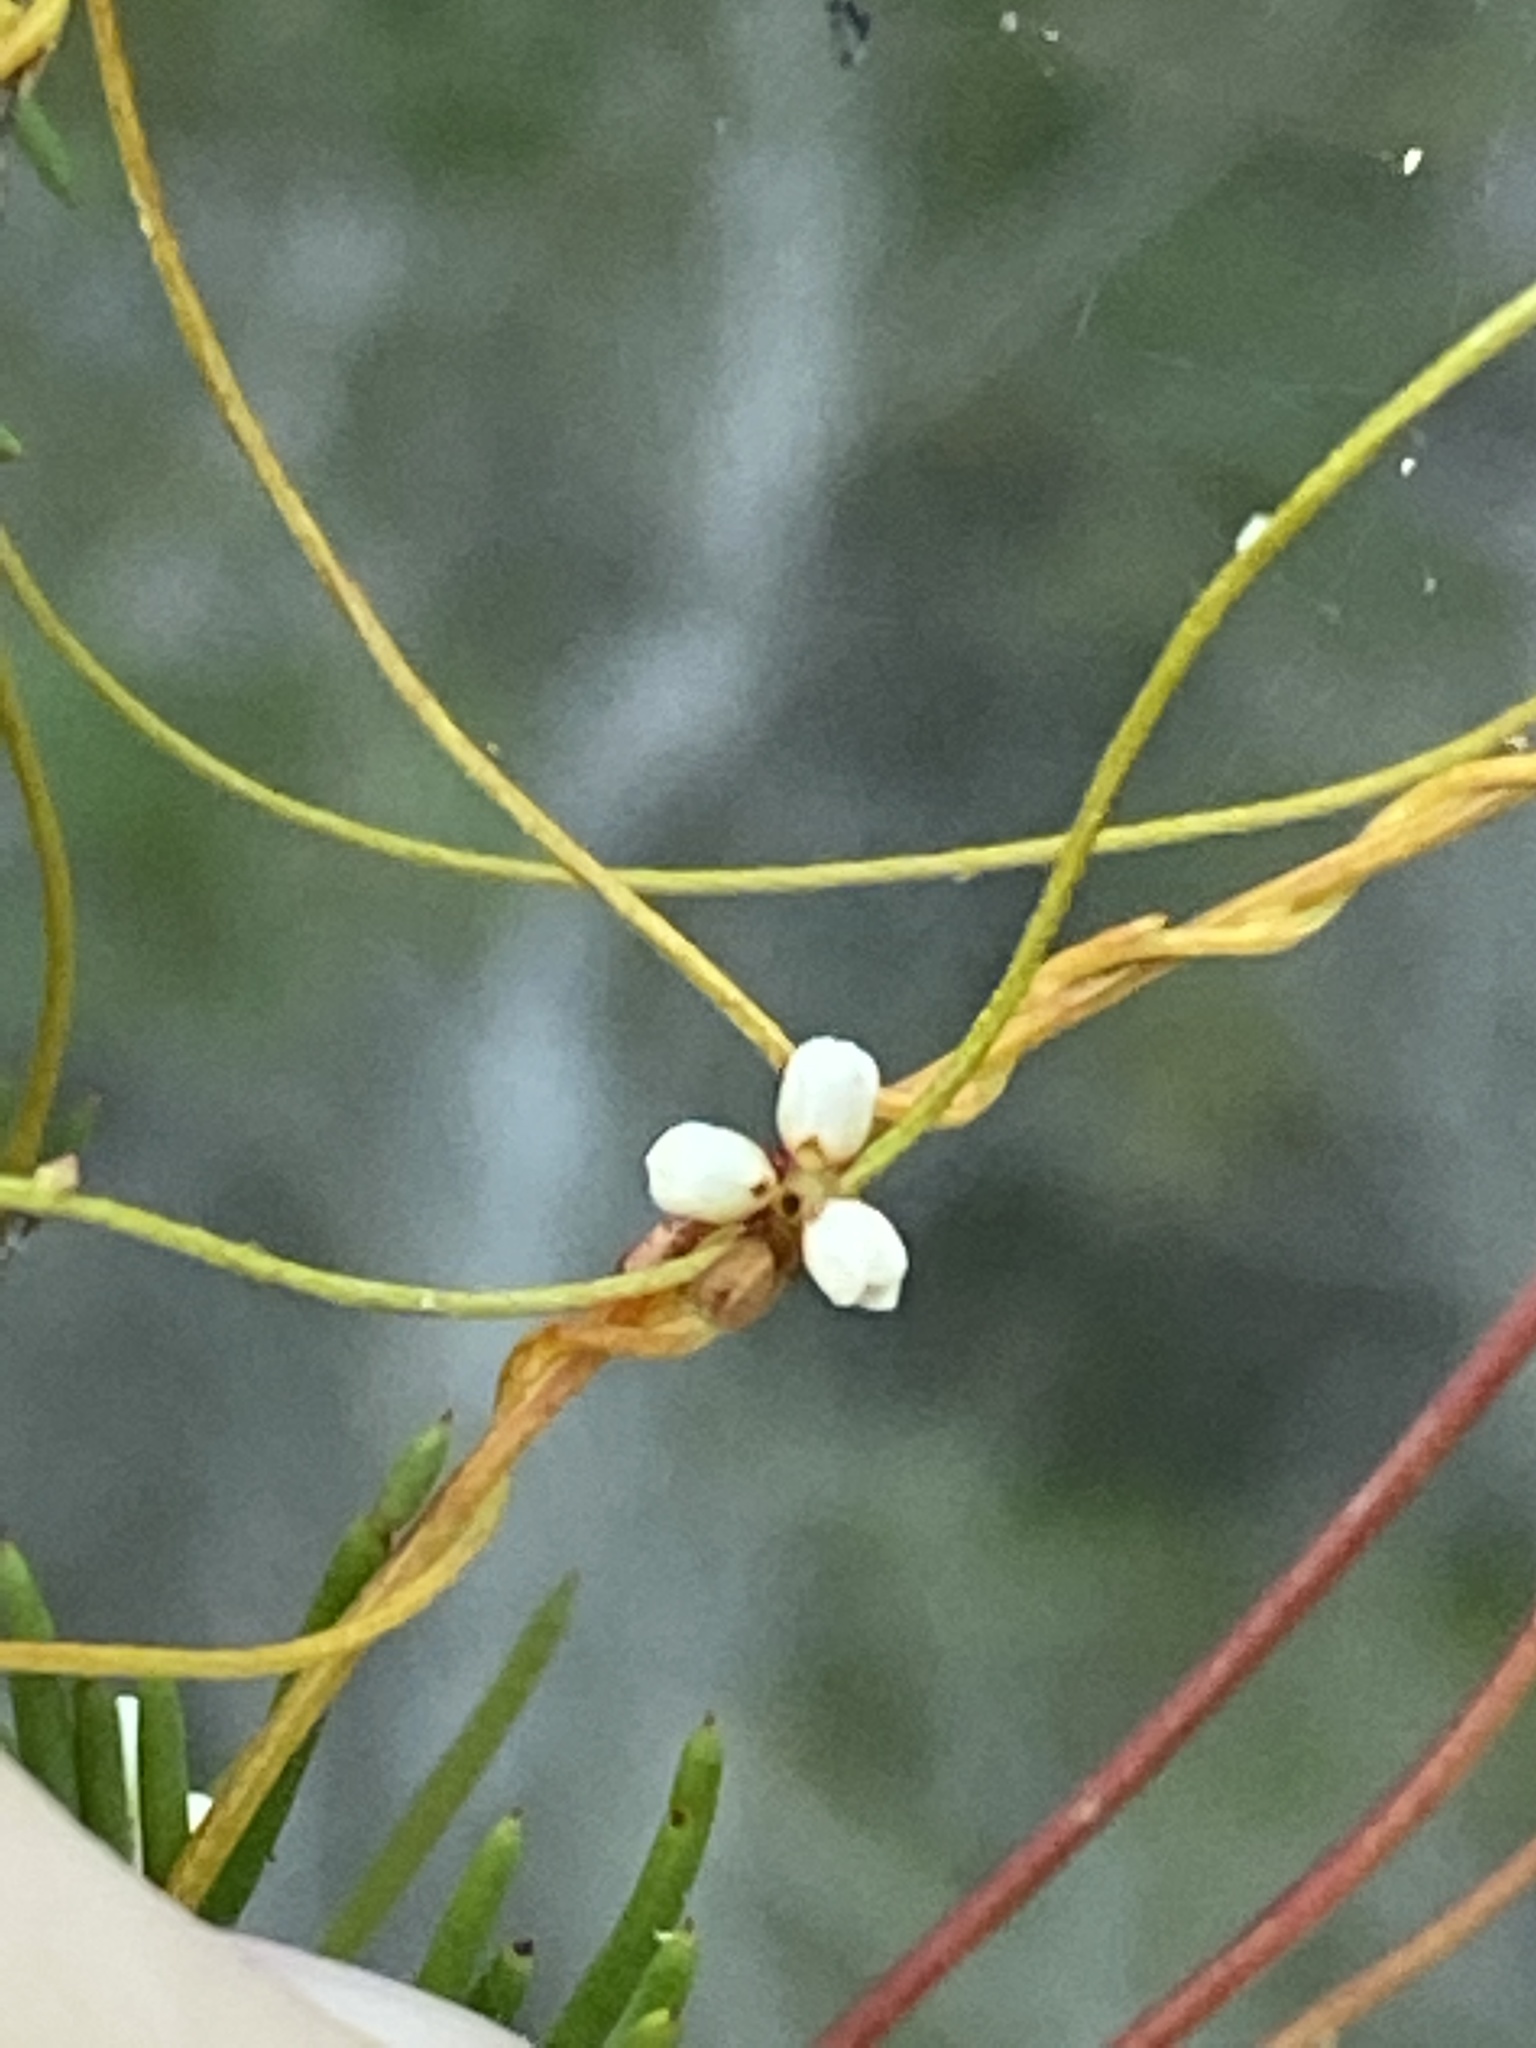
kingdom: Plantae
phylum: Tracheophyta
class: Magnoliopsida
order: Laurales
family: Lauraceae
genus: Cassytha
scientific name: Cassytha filiformis
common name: Dodder-laurel
